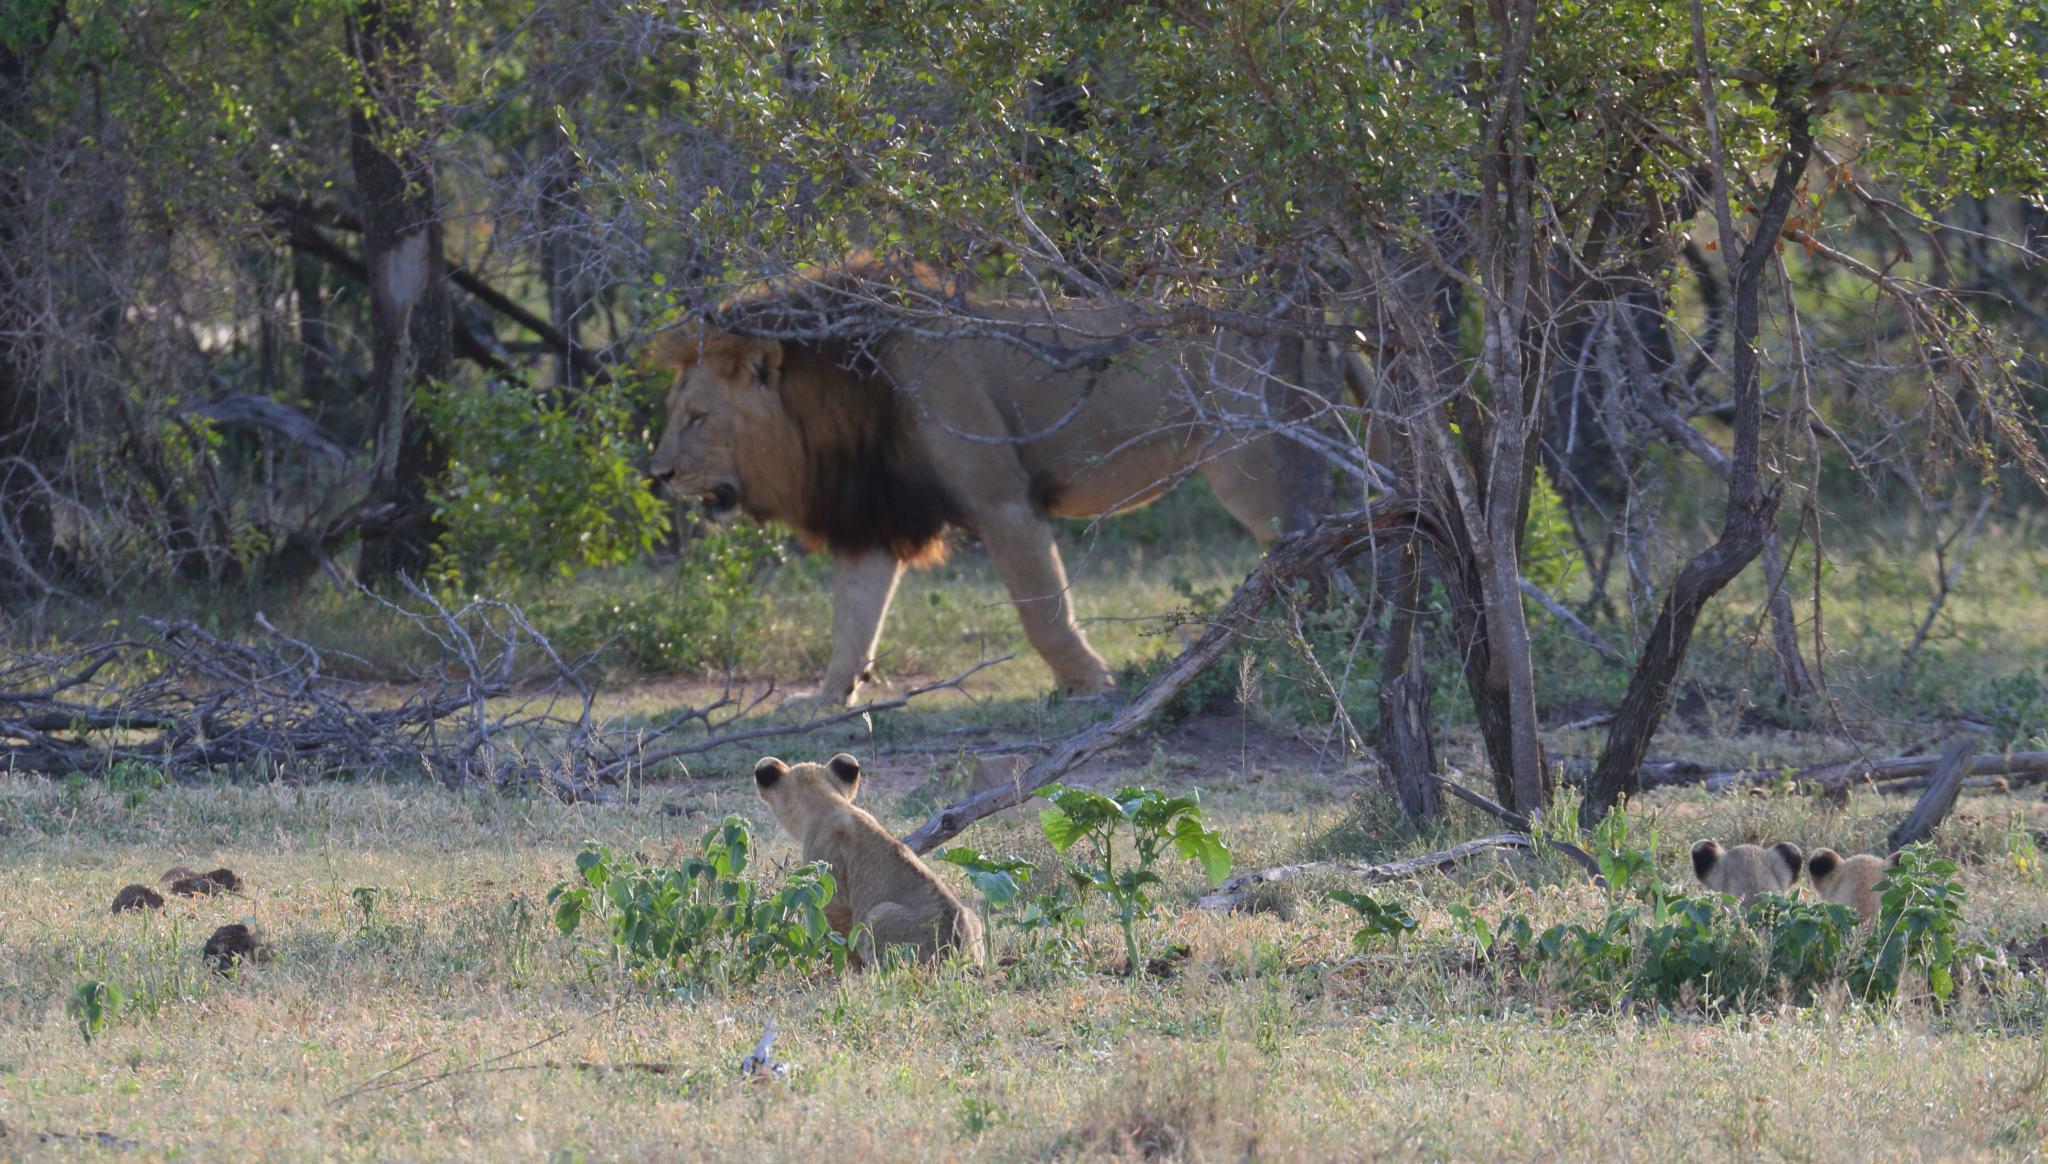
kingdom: Animalia
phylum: Chordata
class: Mammalia
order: Carnivora
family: Felidae
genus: Panthera
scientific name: Panthera leo
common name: Lion
